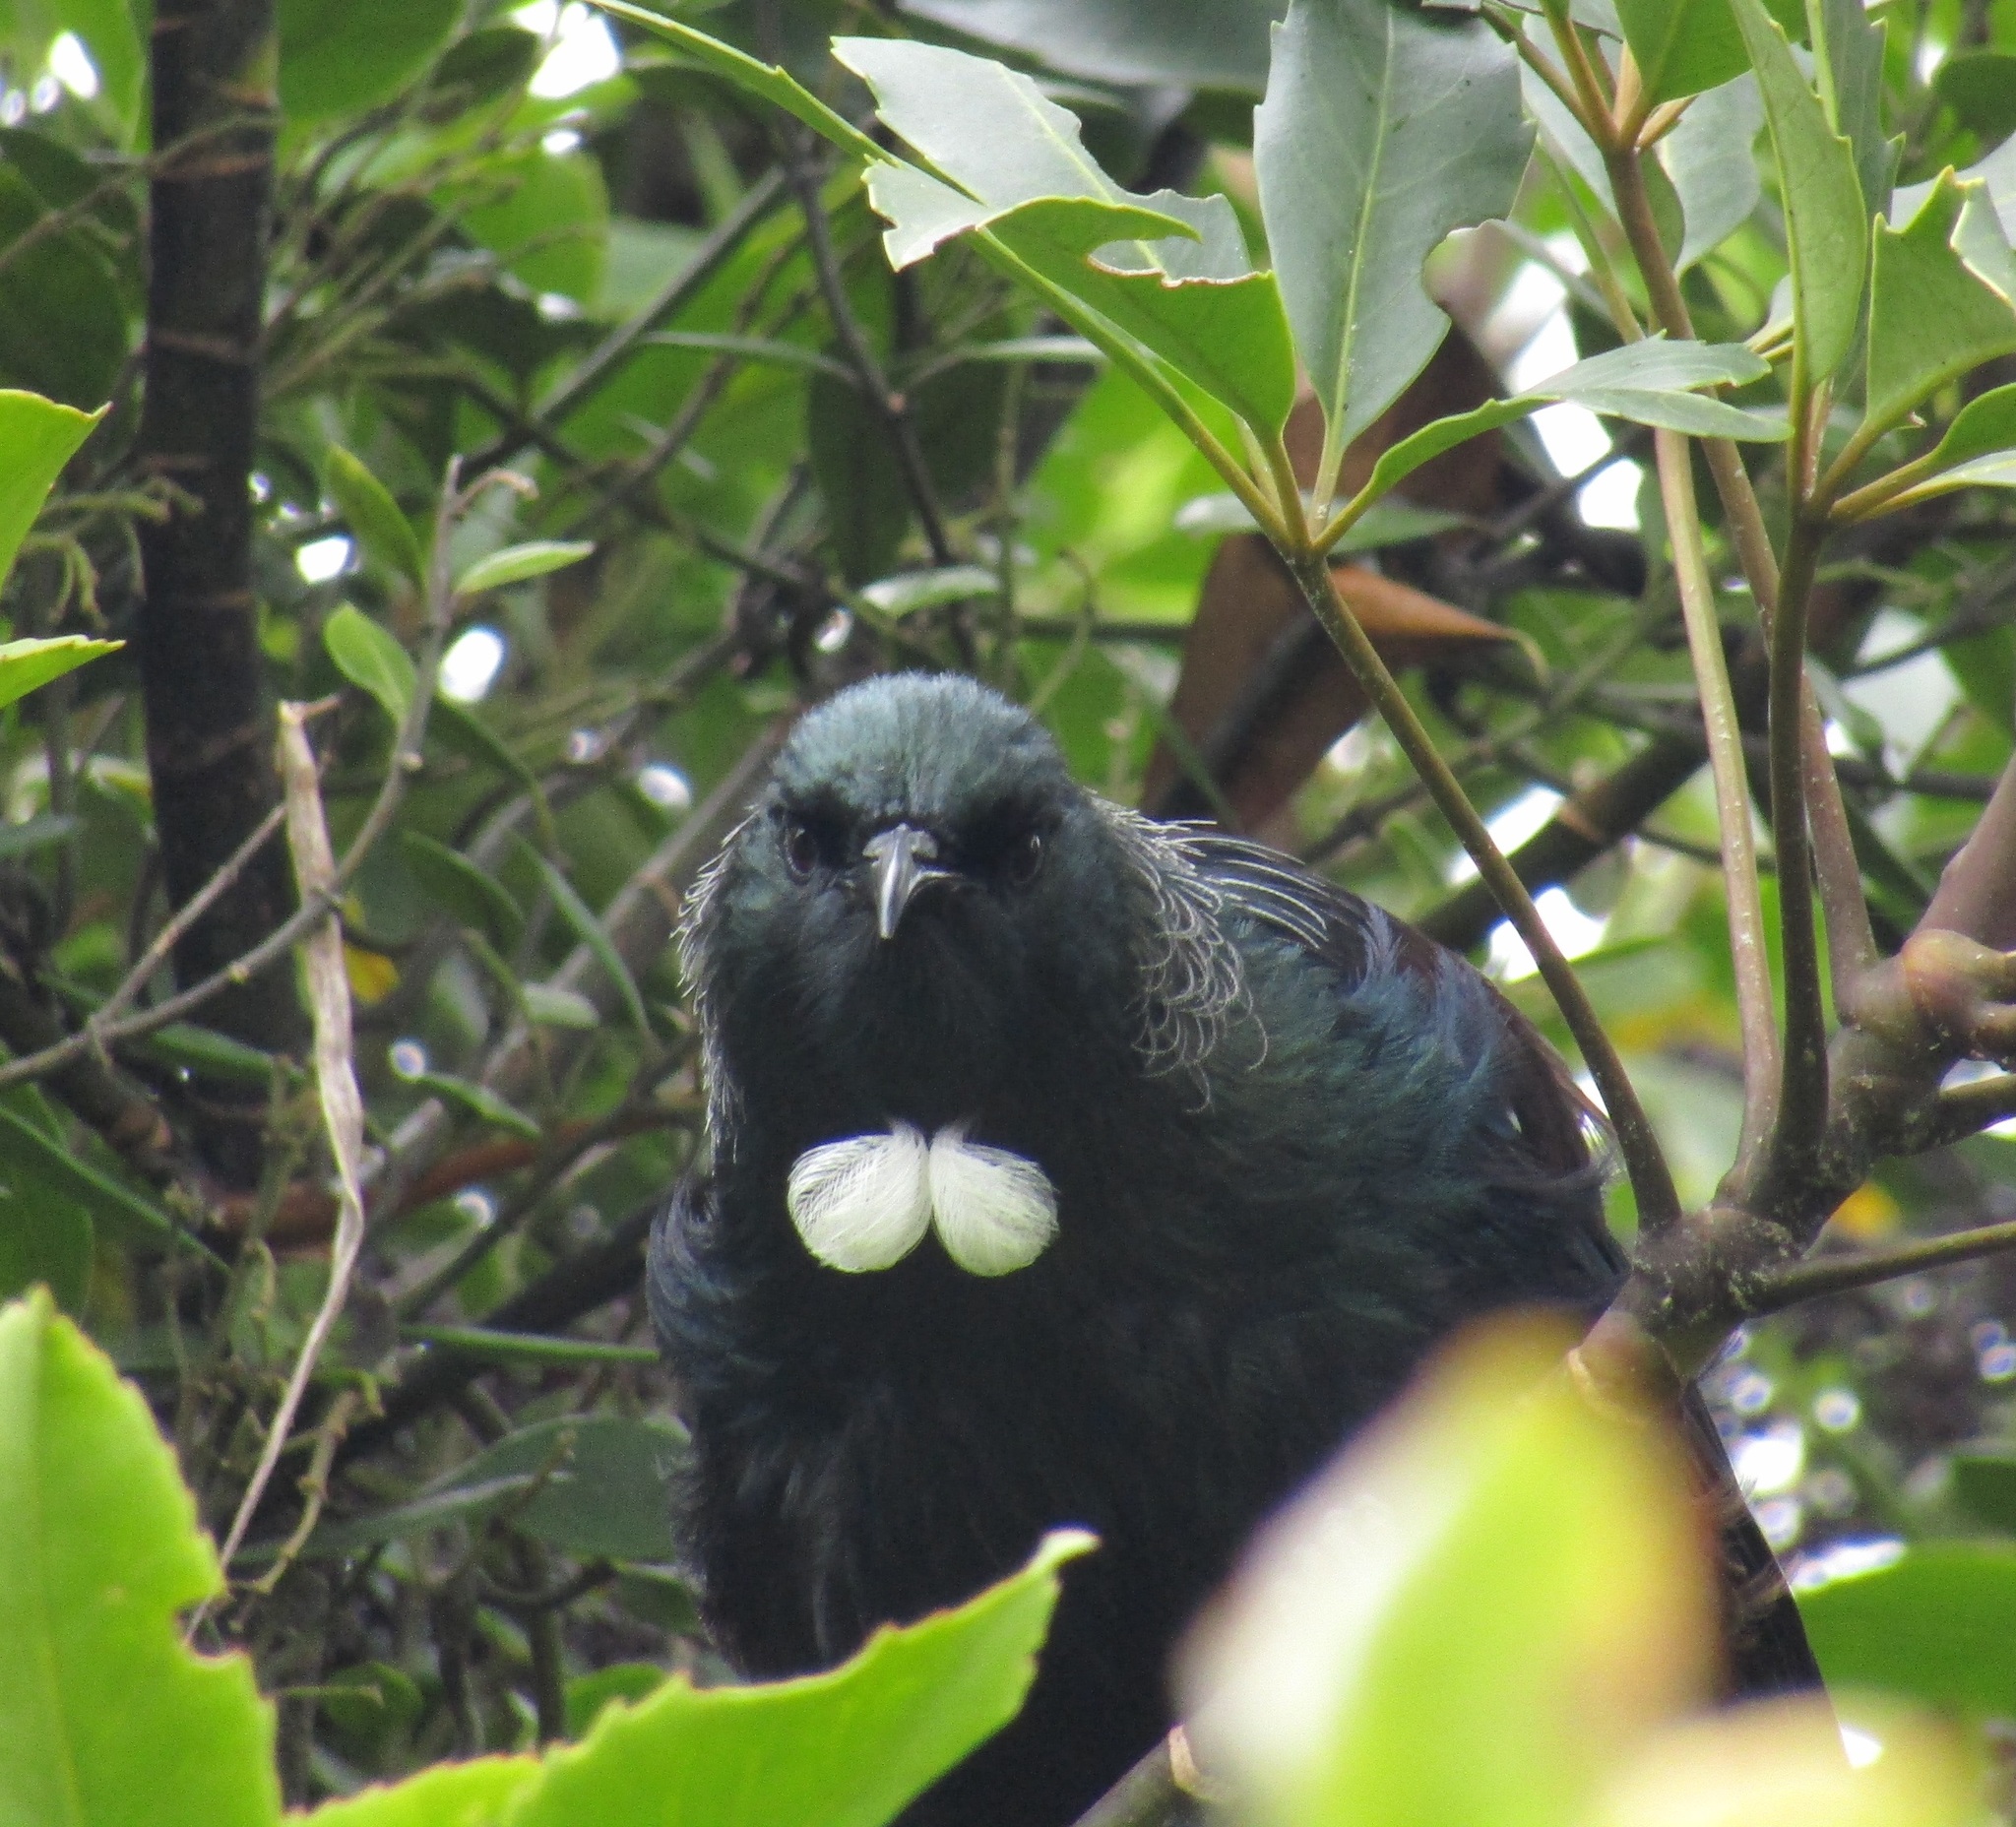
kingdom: Animalia
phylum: Chordata
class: Aves
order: Passeriformes
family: Meliphagidae
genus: Prosthemadera
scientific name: Prosthemadera novaeseelandiae
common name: Tui
